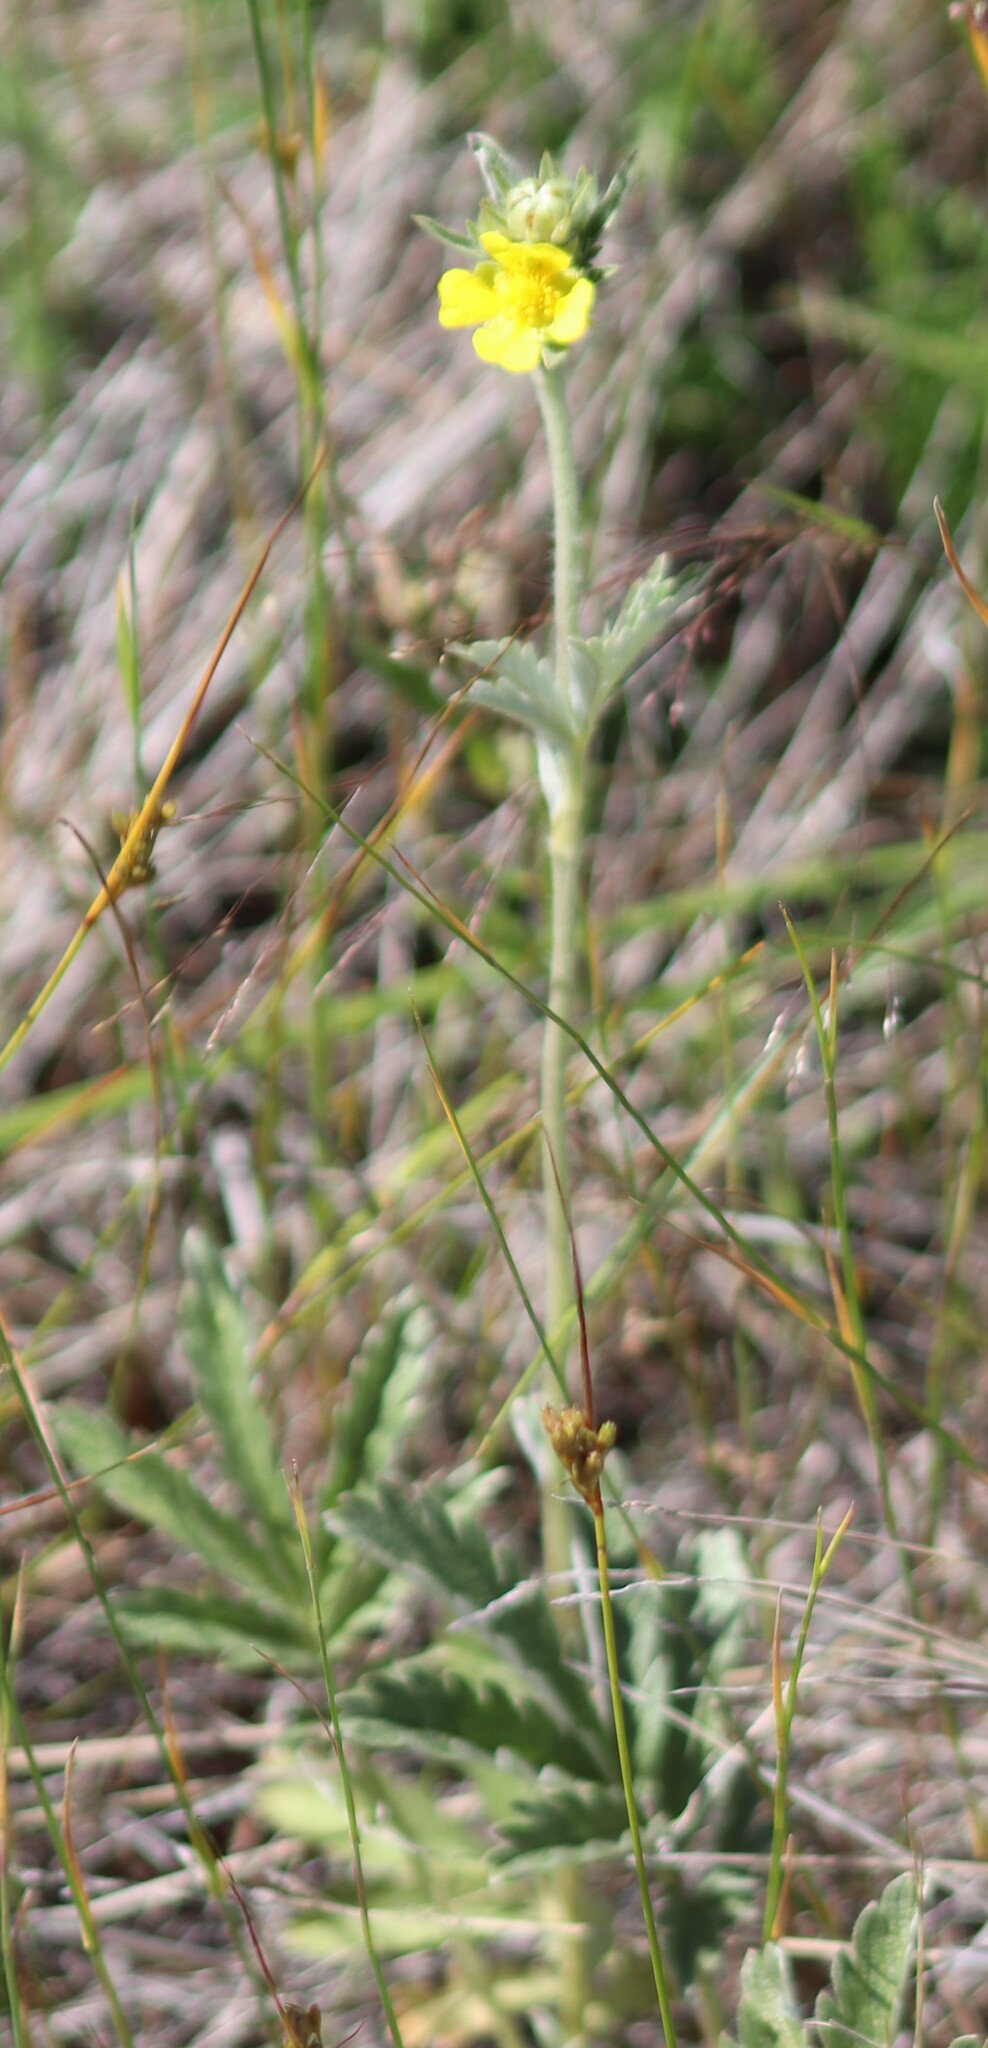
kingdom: Plantae
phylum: Tracheophyta
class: Magnoliopsida
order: Rosales
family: Rosaceae
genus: Potentilla
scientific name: Potentilla hippiana
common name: Woolly cinquefoil
